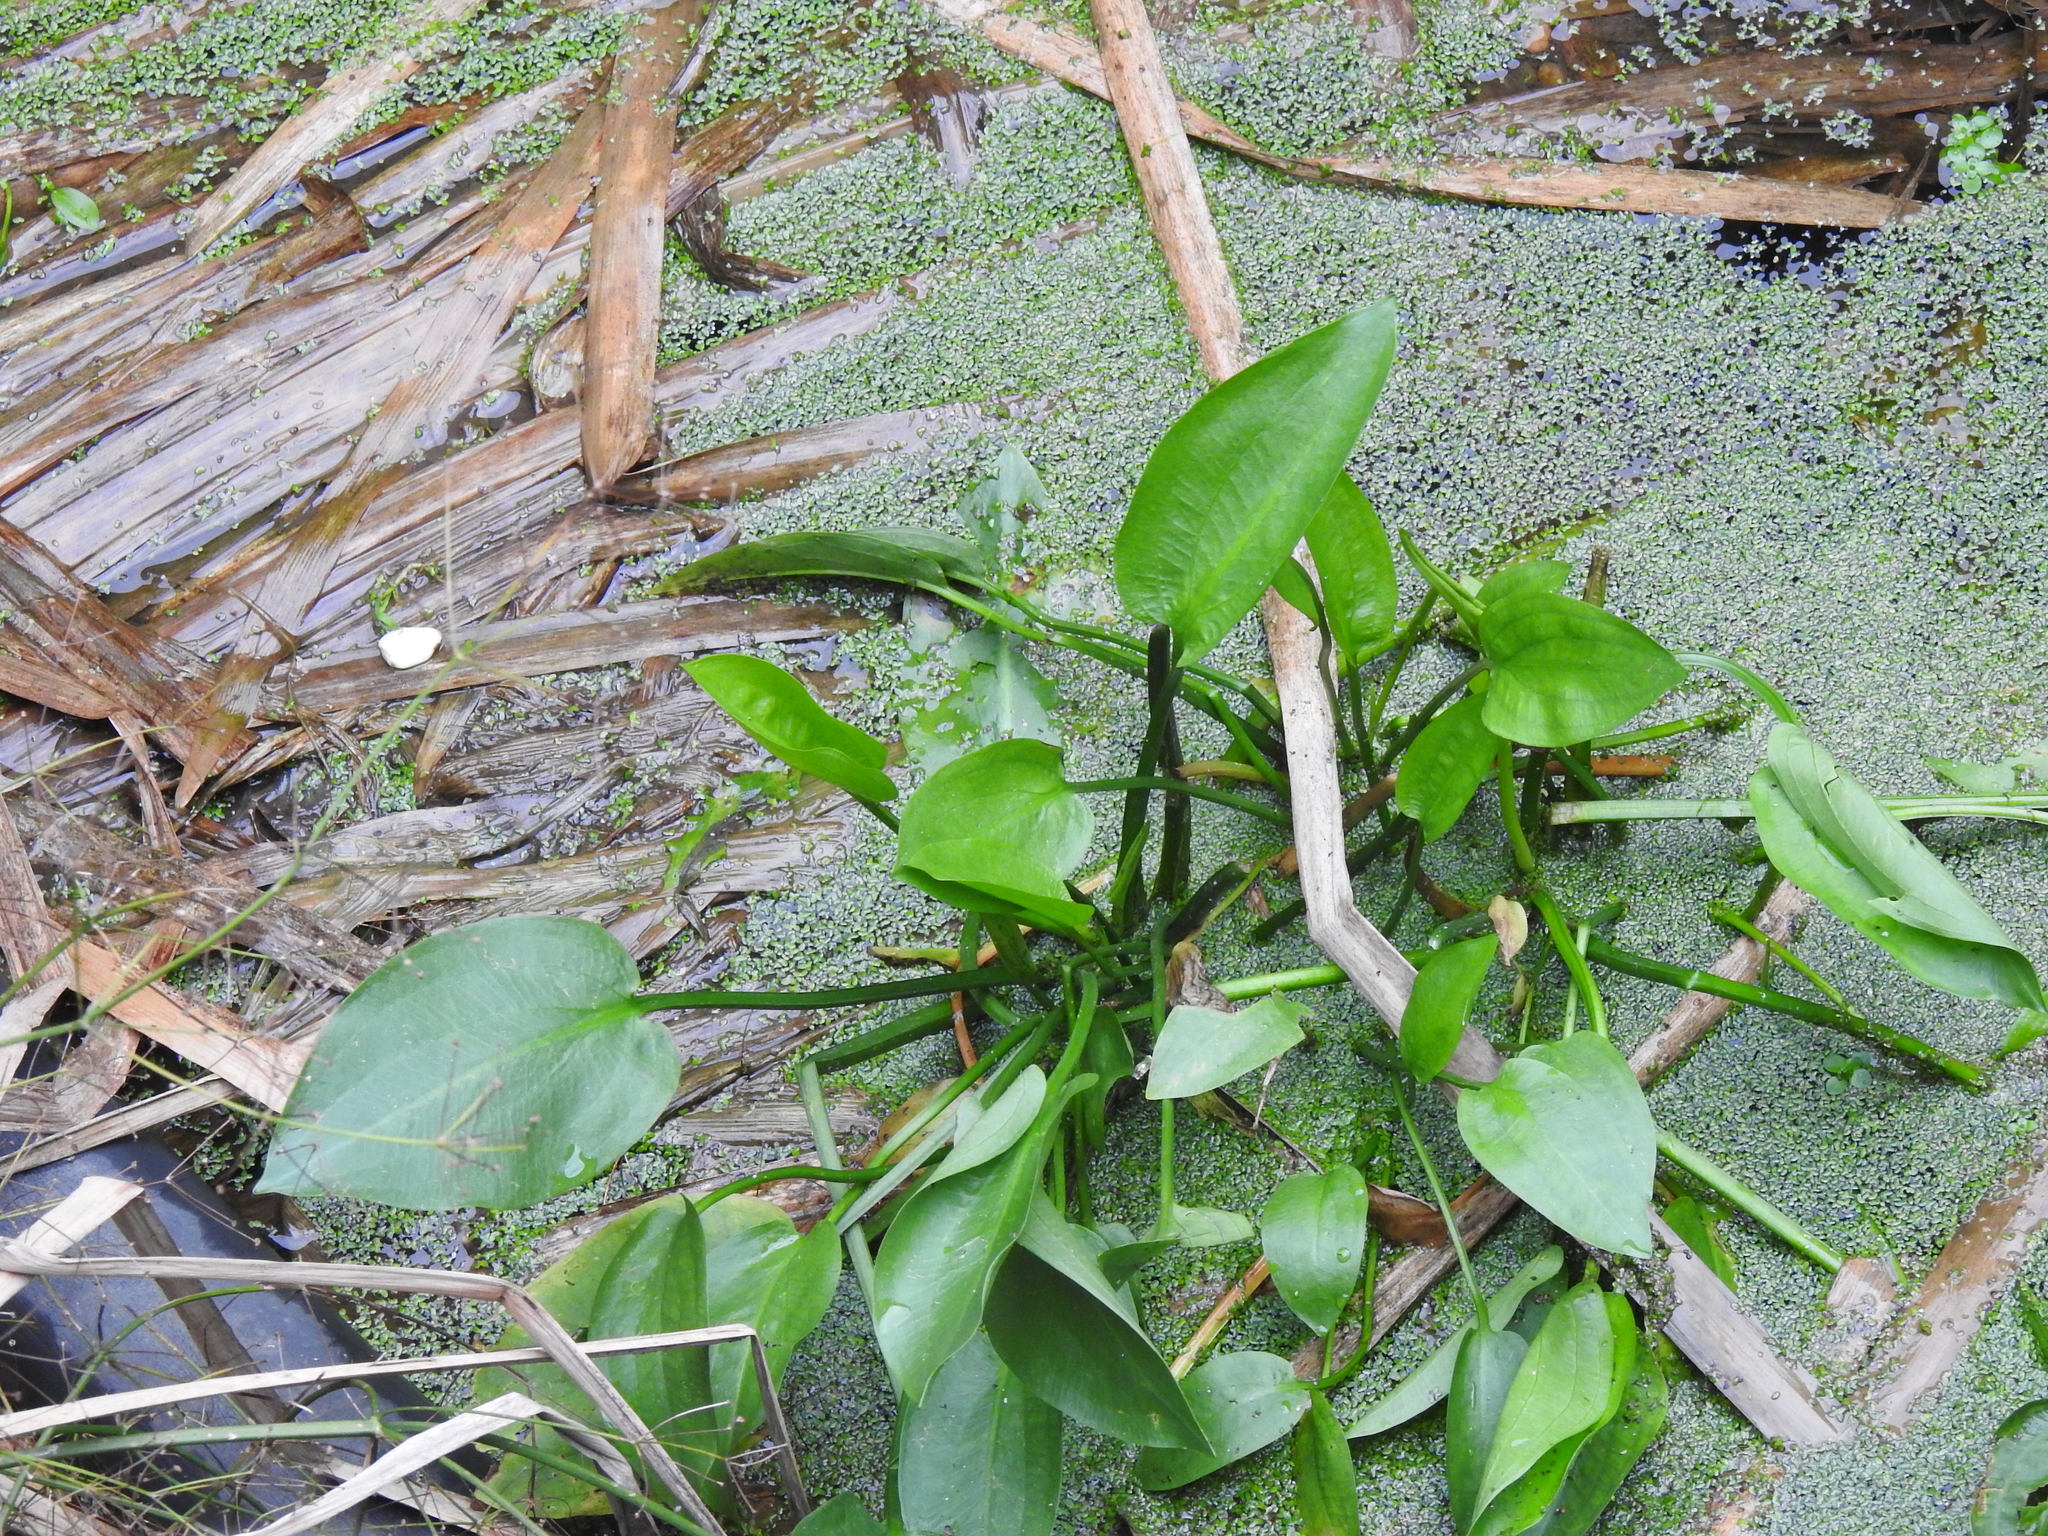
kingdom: Plantae
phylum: Tracheophyta
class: Liliopsida
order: Alismatales
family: Alismataceae
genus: Alisma
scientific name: Alisma plantago-aquatica
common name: Water-plantain
